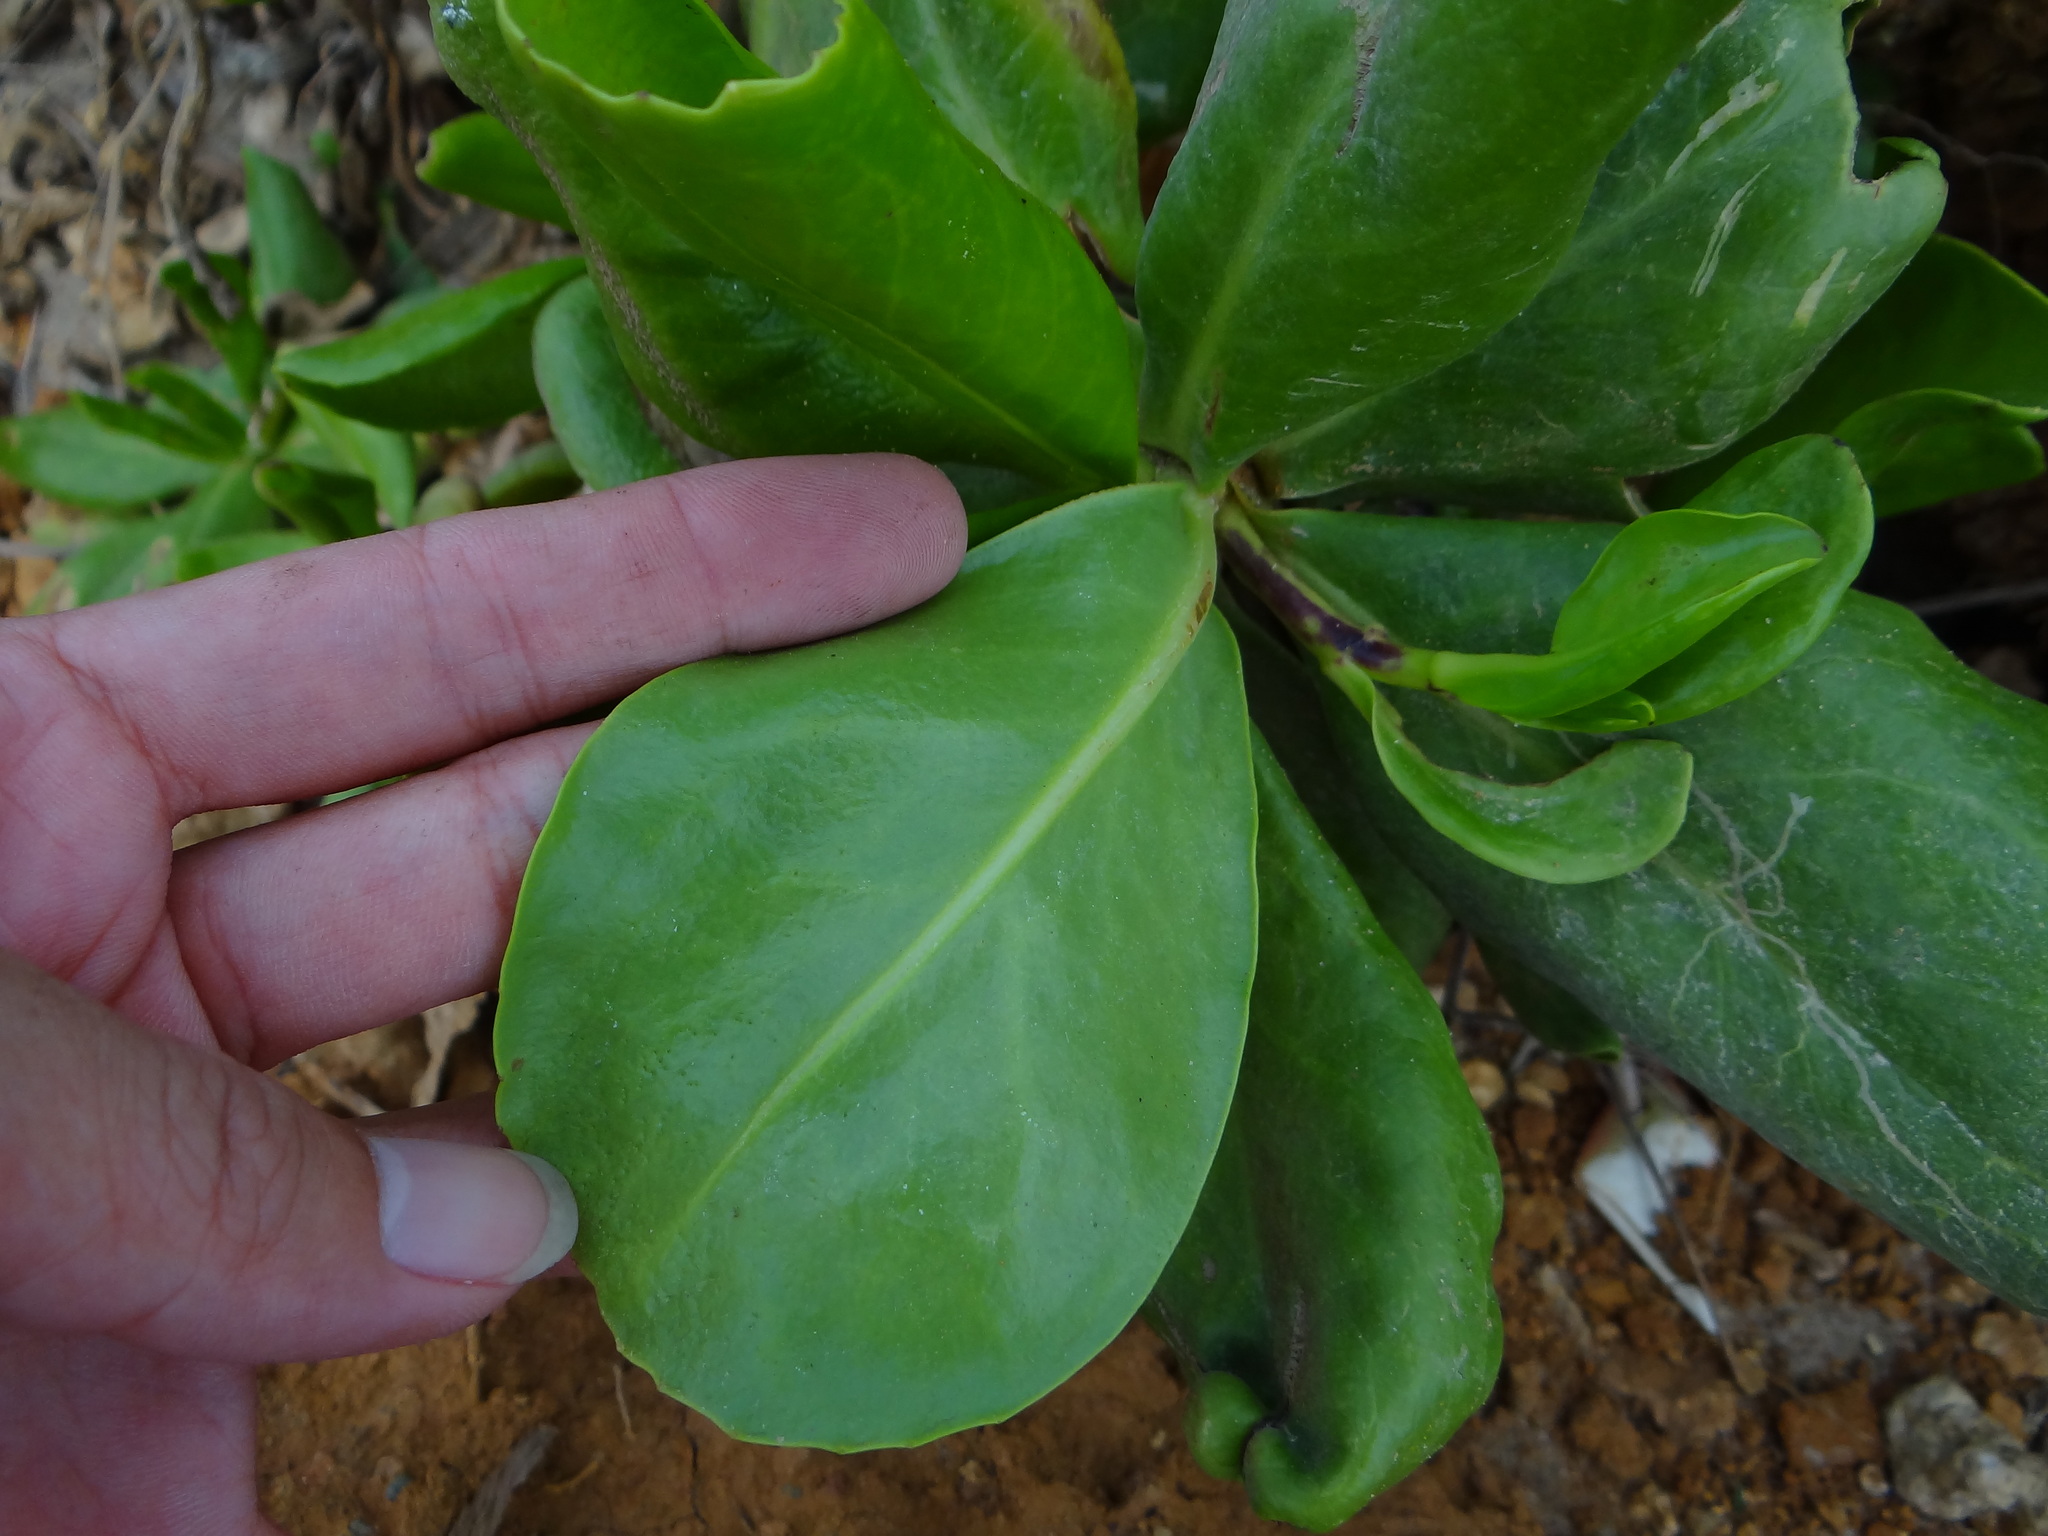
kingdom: Plantae
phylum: Tracheophyta
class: Magnoliopsida
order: Asterales
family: Goodeniaceae
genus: Scaevola
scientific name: Scaevola taccada
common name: Sea lettucetree
